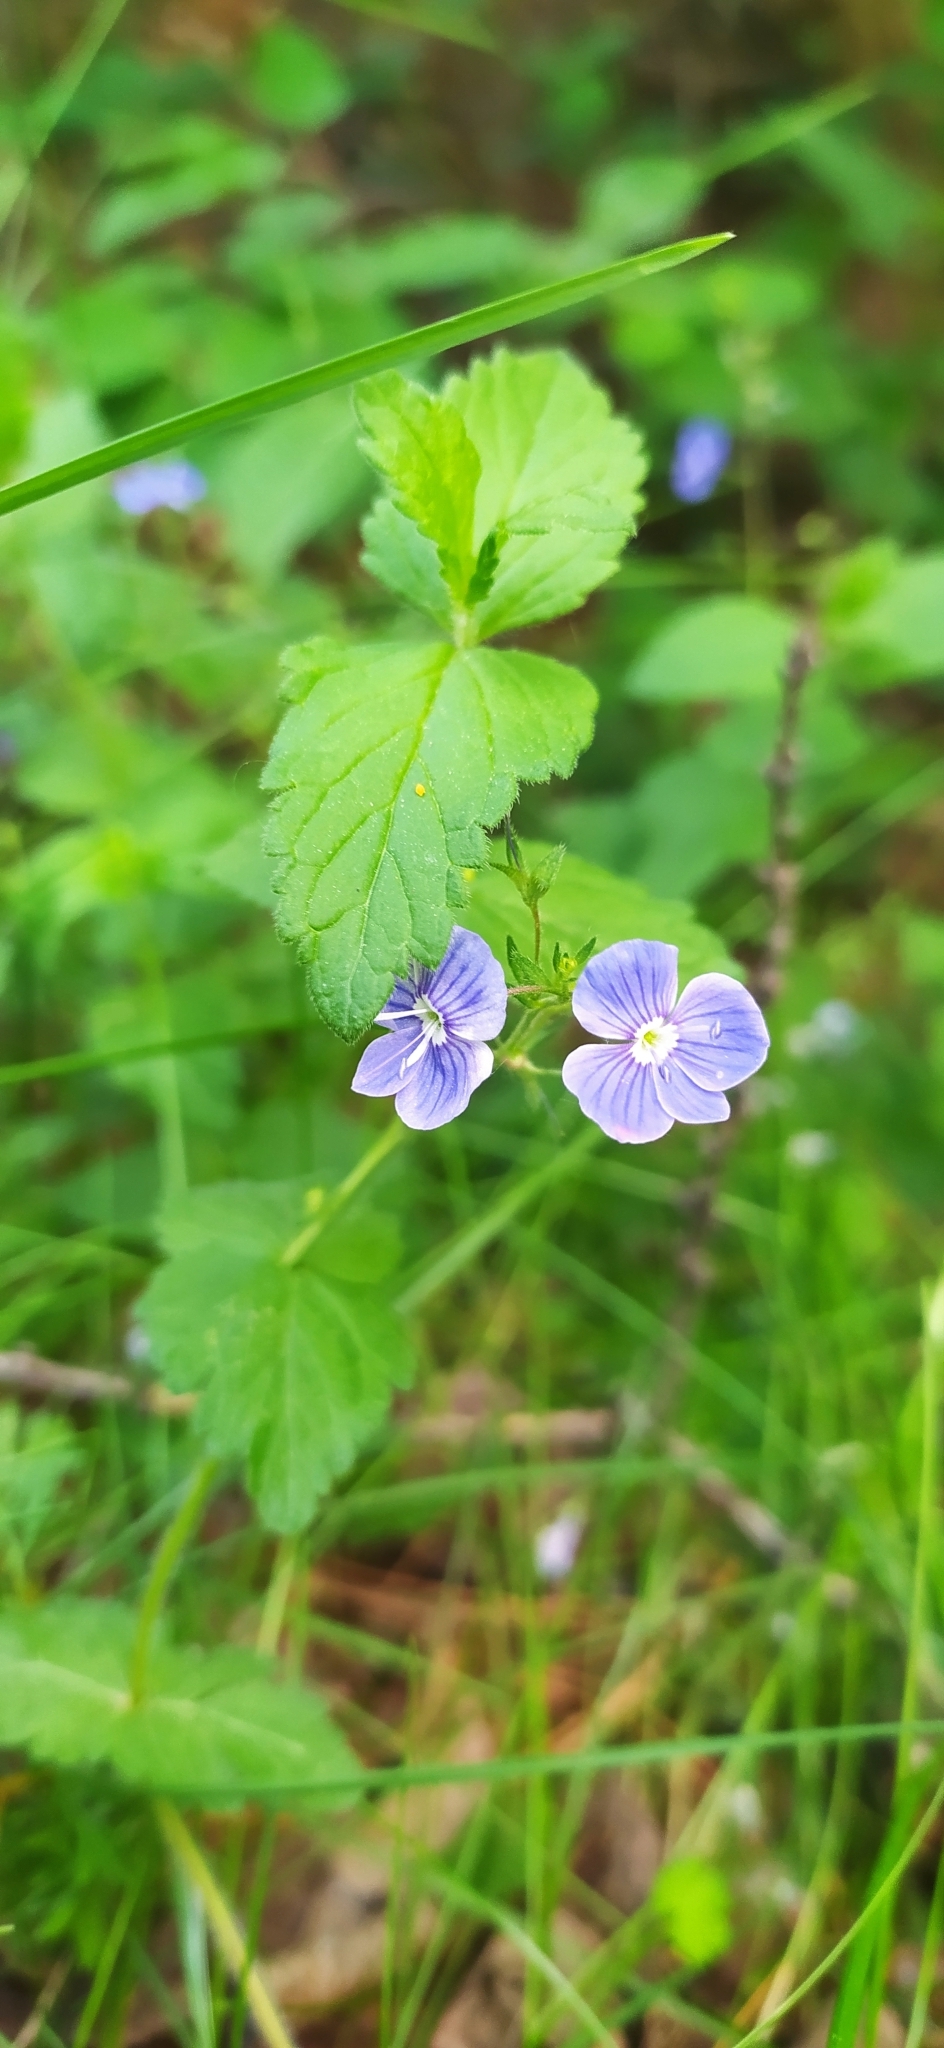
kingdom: Plantae
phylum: Tracheophyta
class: Magnoliopsida
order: Lamiales
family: Plantaginaceae
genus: Veronica
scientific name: Veronica chamaedrys
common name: Germander speedwell
